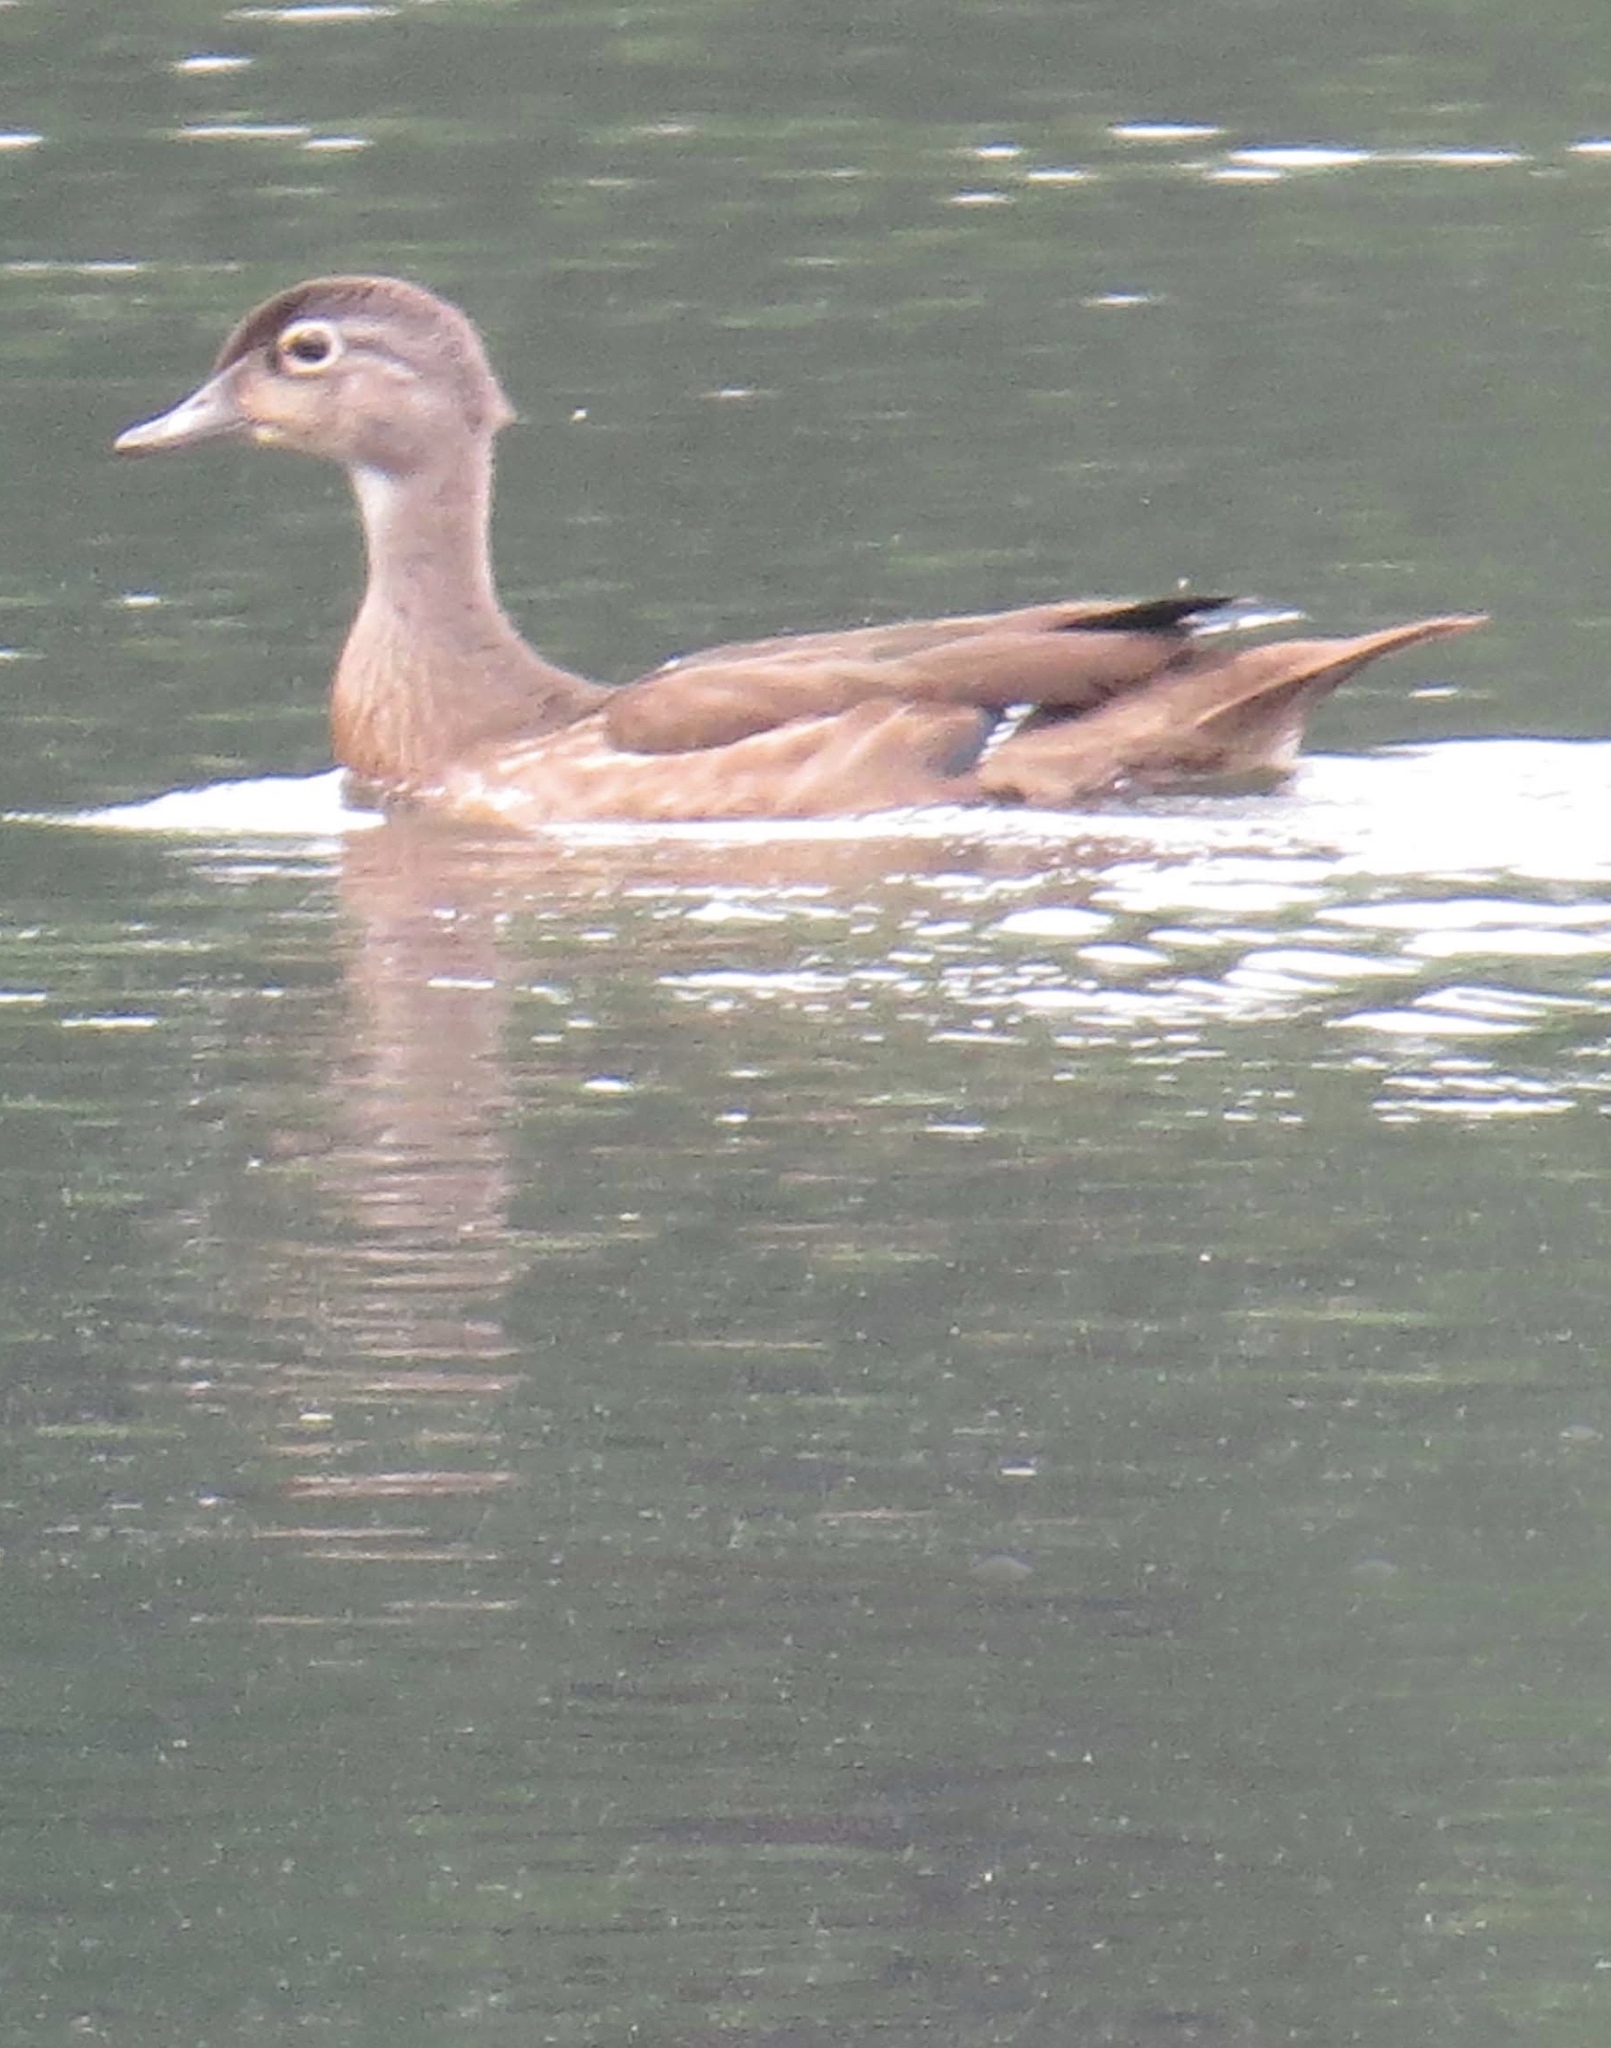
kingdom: Animalia
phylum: Chordata
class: Aves
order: Anseriformes
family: Anatidae
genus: Aix
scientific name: Aix sponsa
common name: Wood duck
